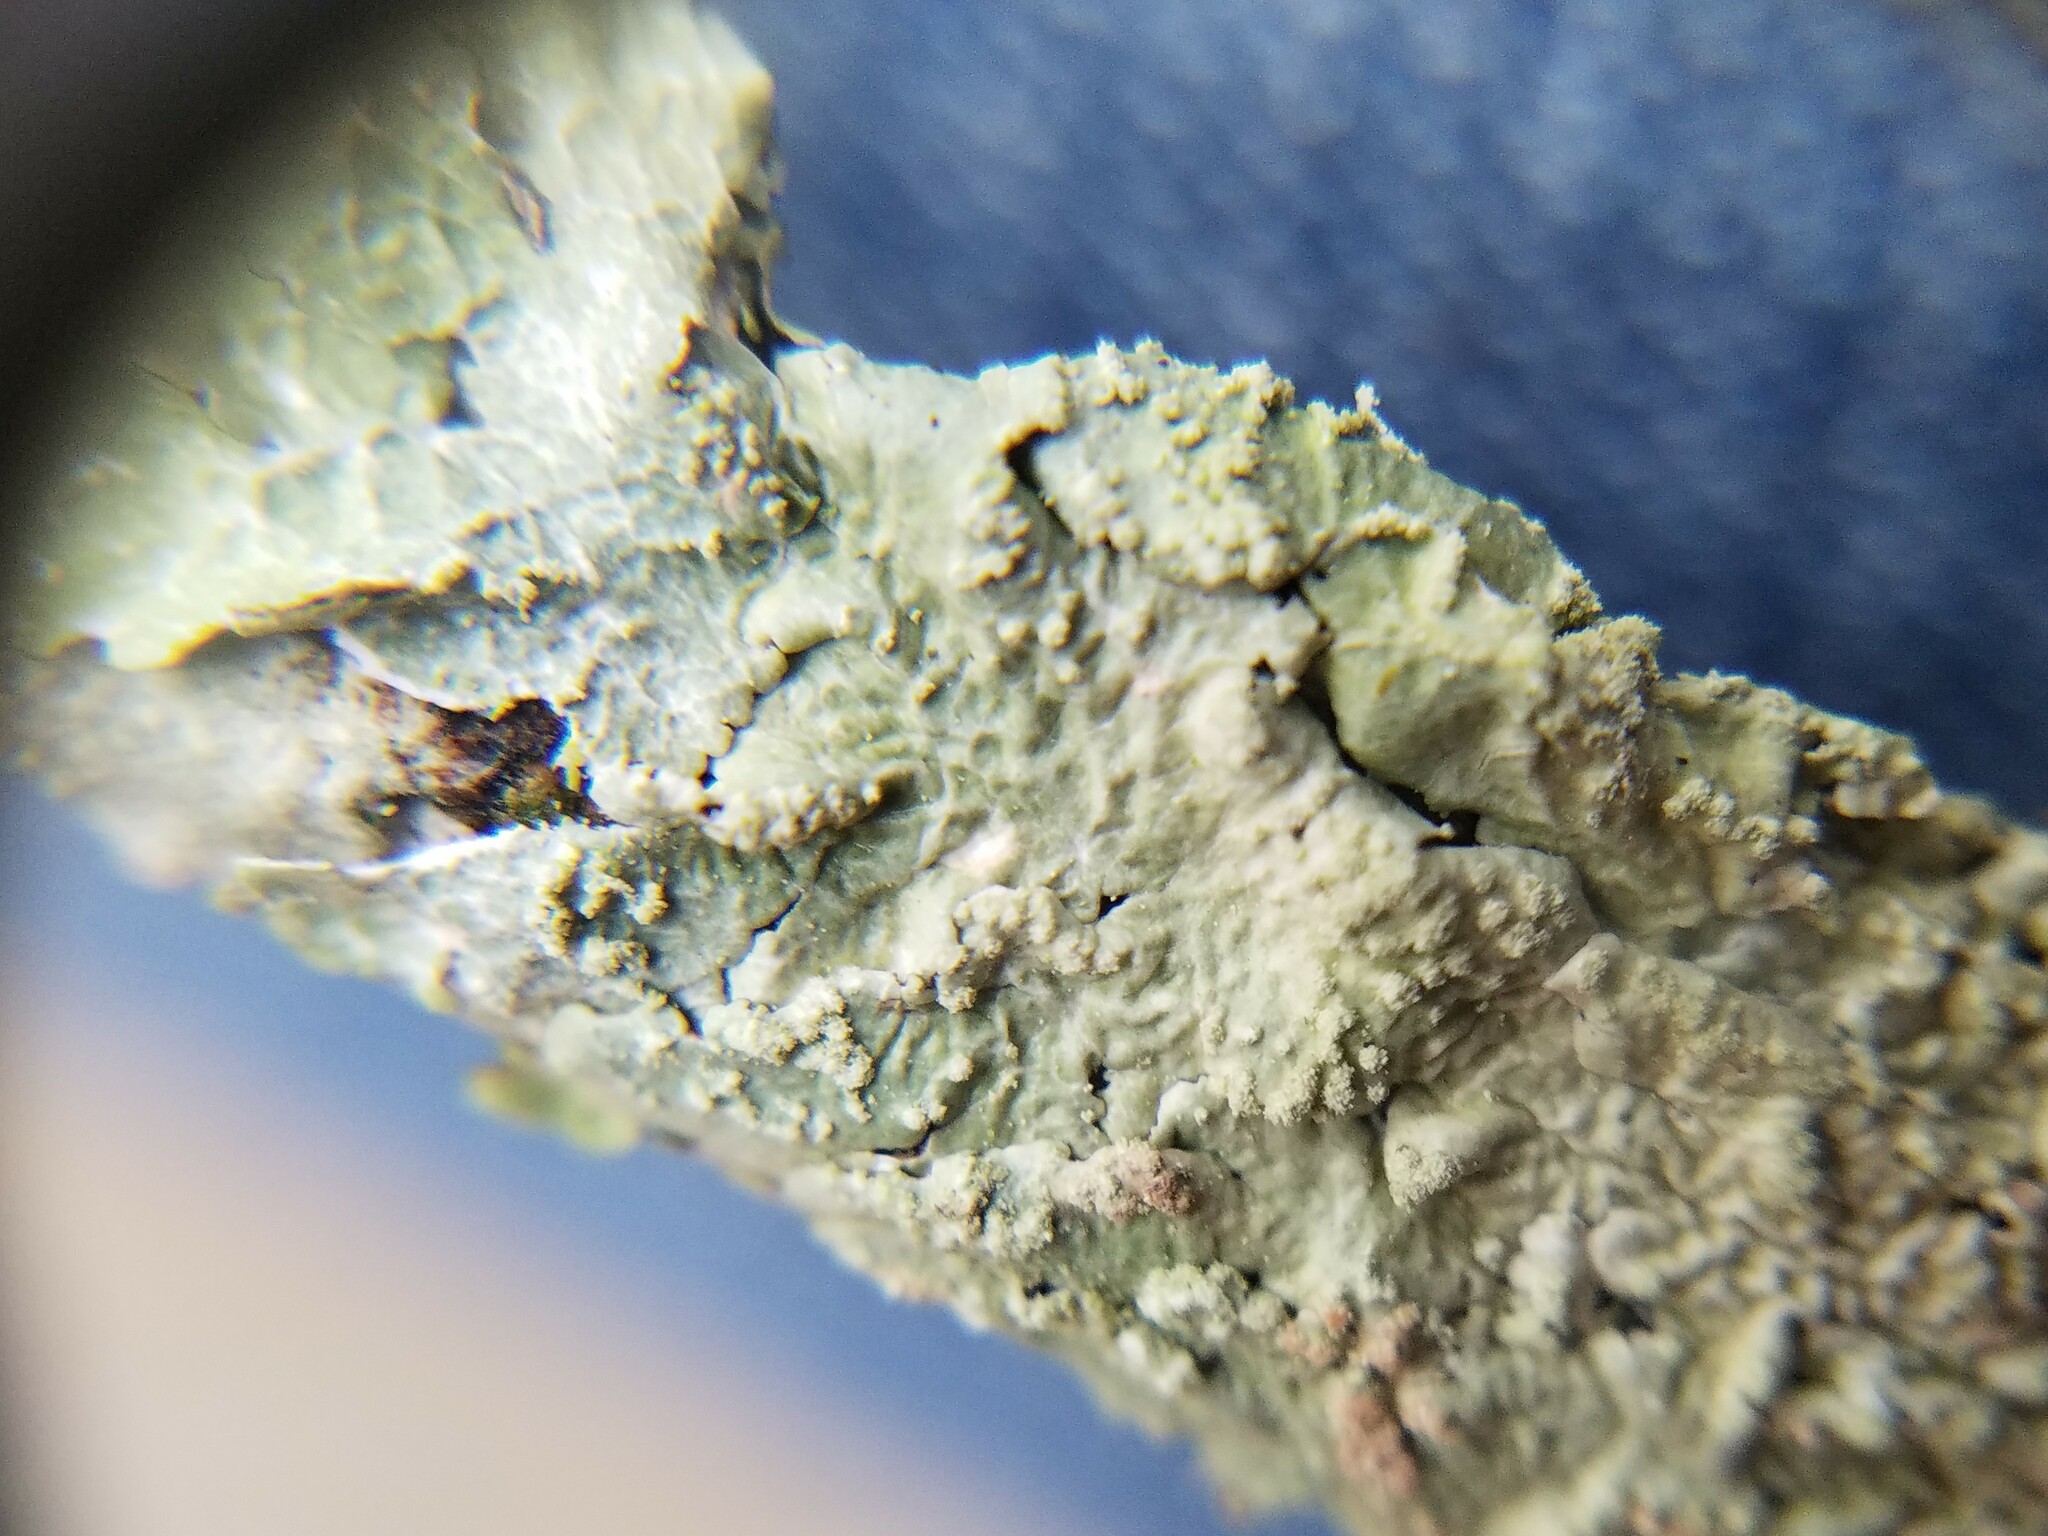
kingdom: Fungi
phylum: Ascomycota
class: Lecanoromycetes
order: Lecanorales
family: Parmeliaceae
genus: Crespoa
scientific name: Crespoa crozalsiana
